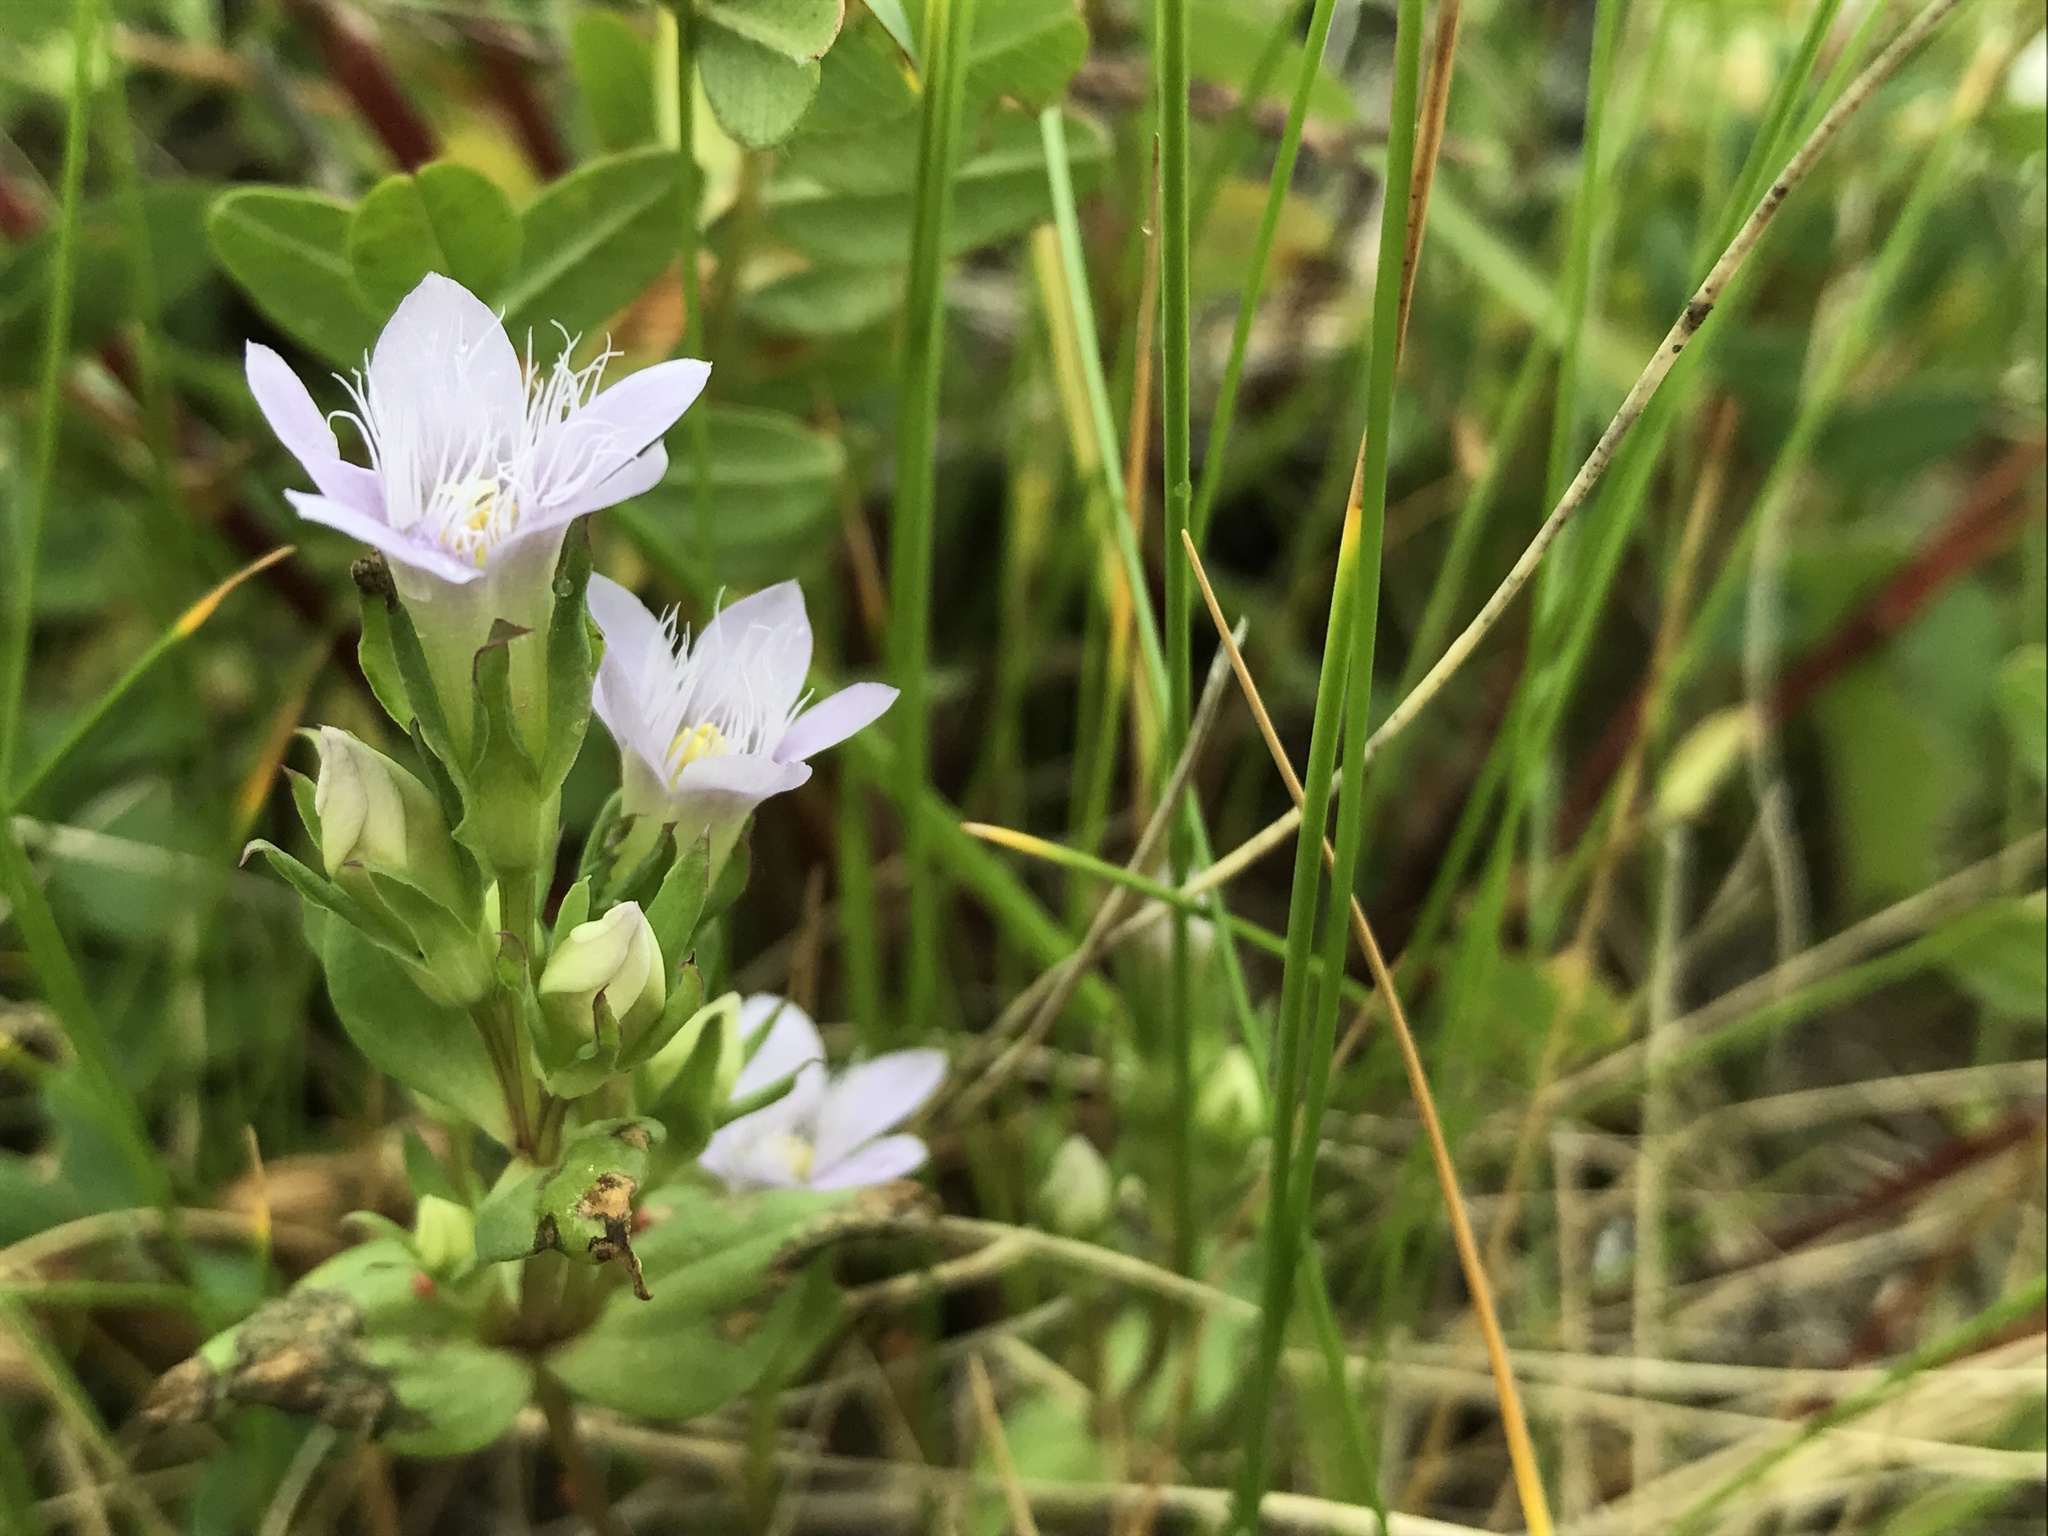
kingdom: Plantae
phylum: Tracheophyta
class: Magnoliopsida
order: Gentianales
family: Gentianaceae
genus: Gentianella
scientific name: Gentianella biebersteinii
